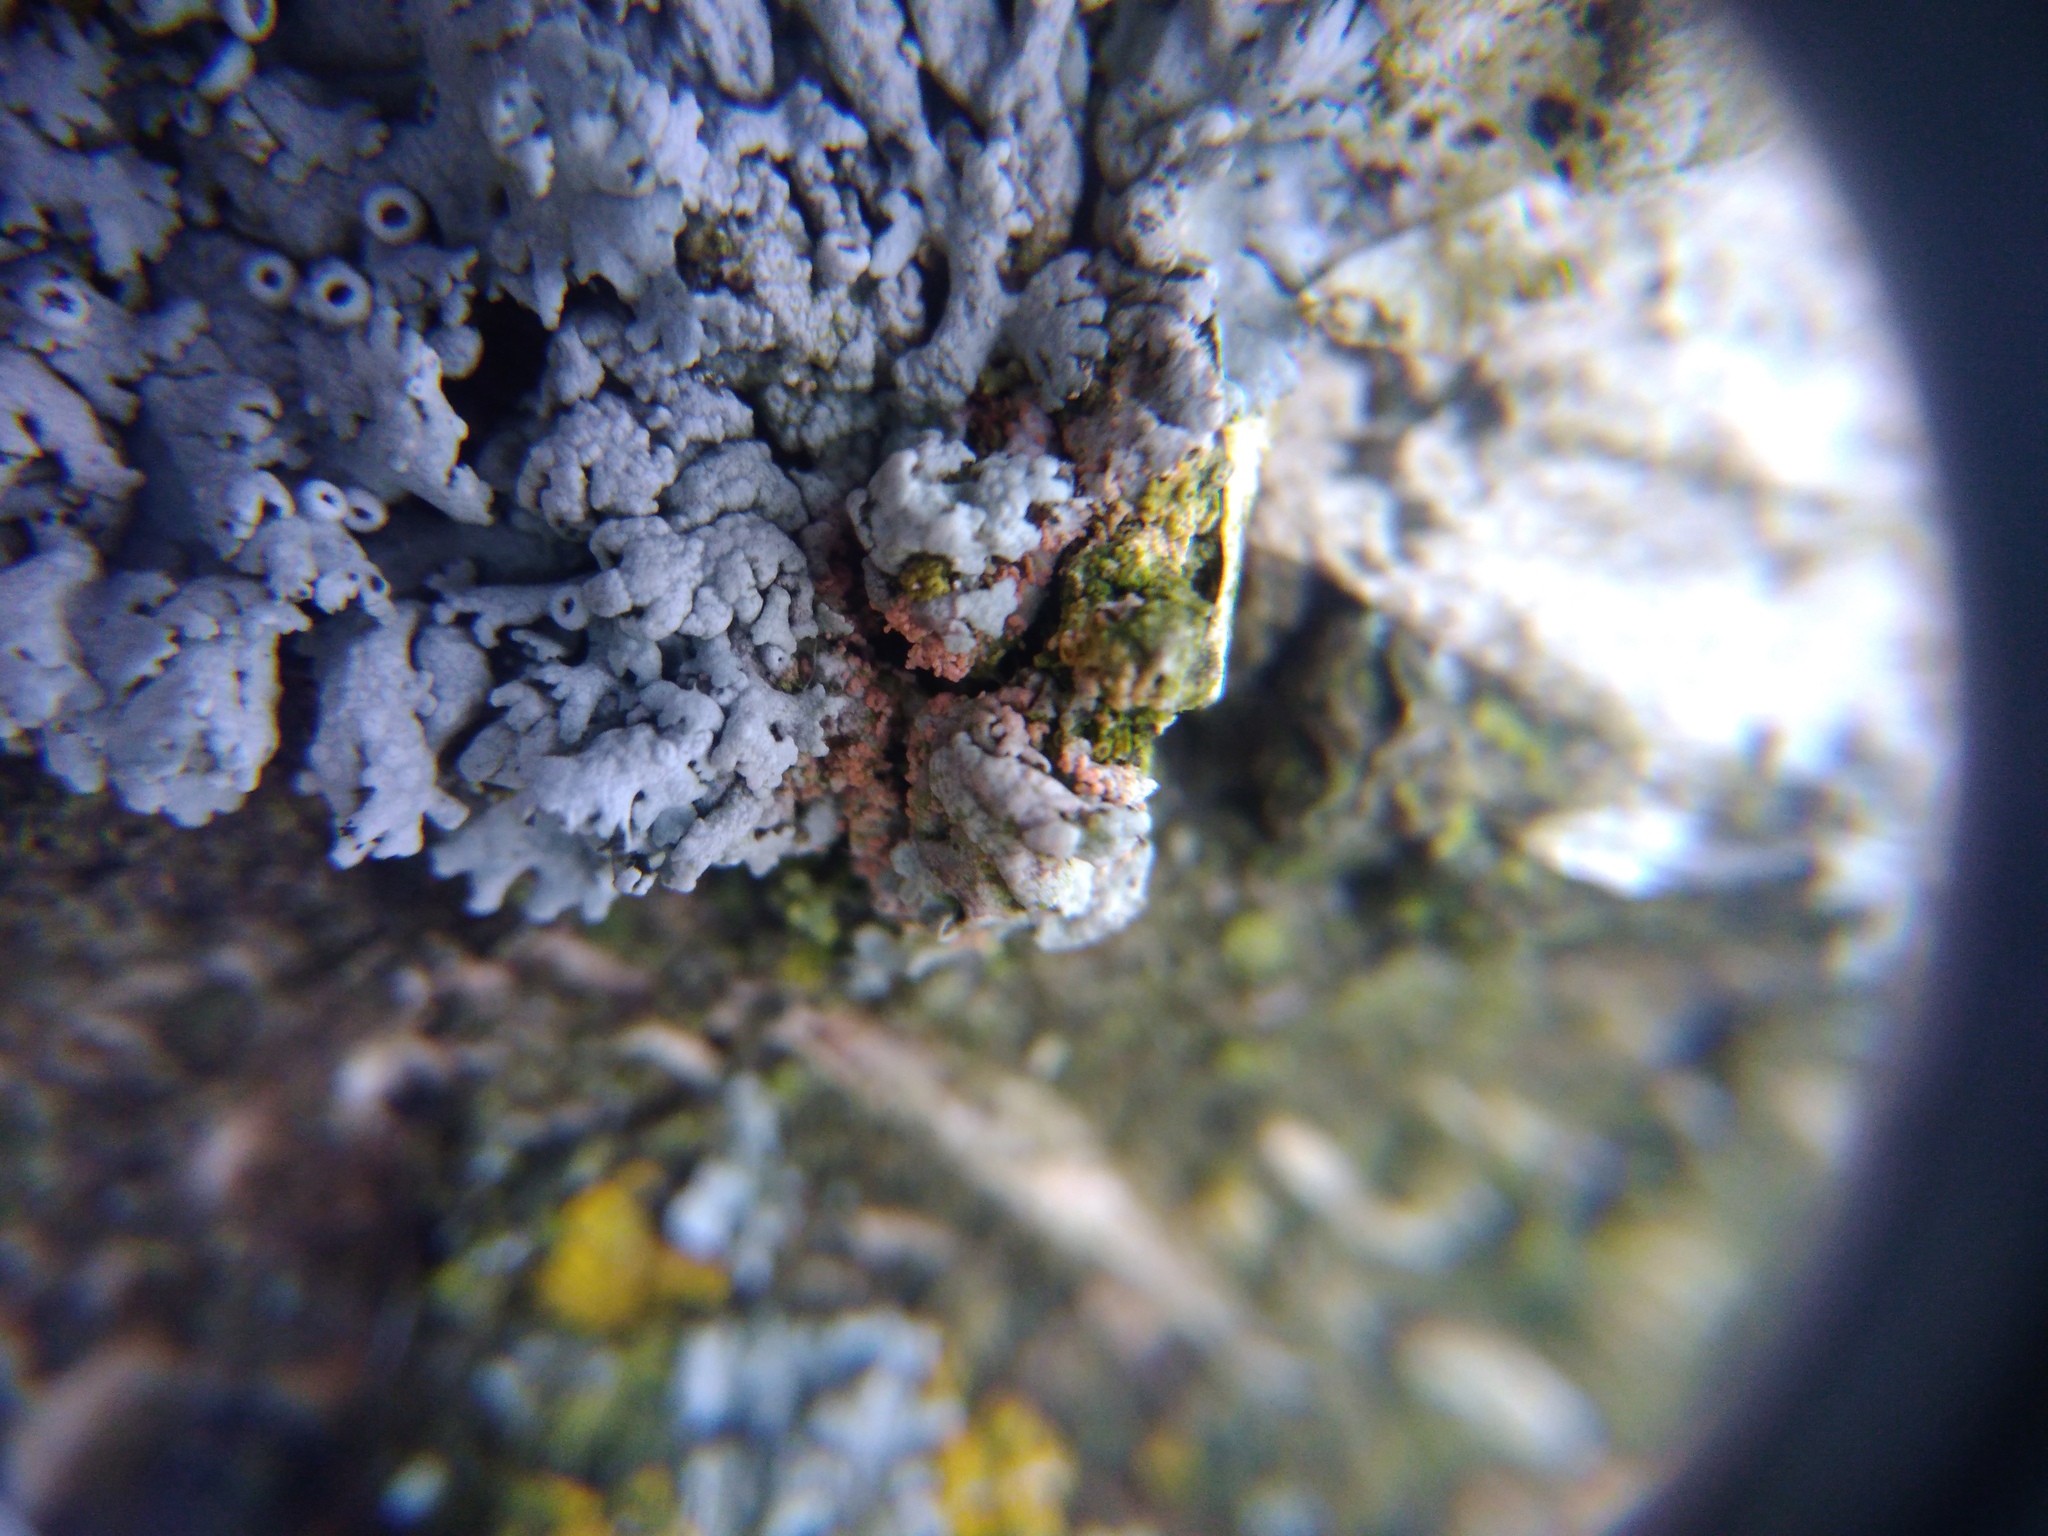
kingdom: Fungi
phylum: Basidiomycota
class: Agaricomycetes
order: Corticiales
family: Corticiaceae
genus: Erythricium
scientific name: Erythricium aurantiacum
